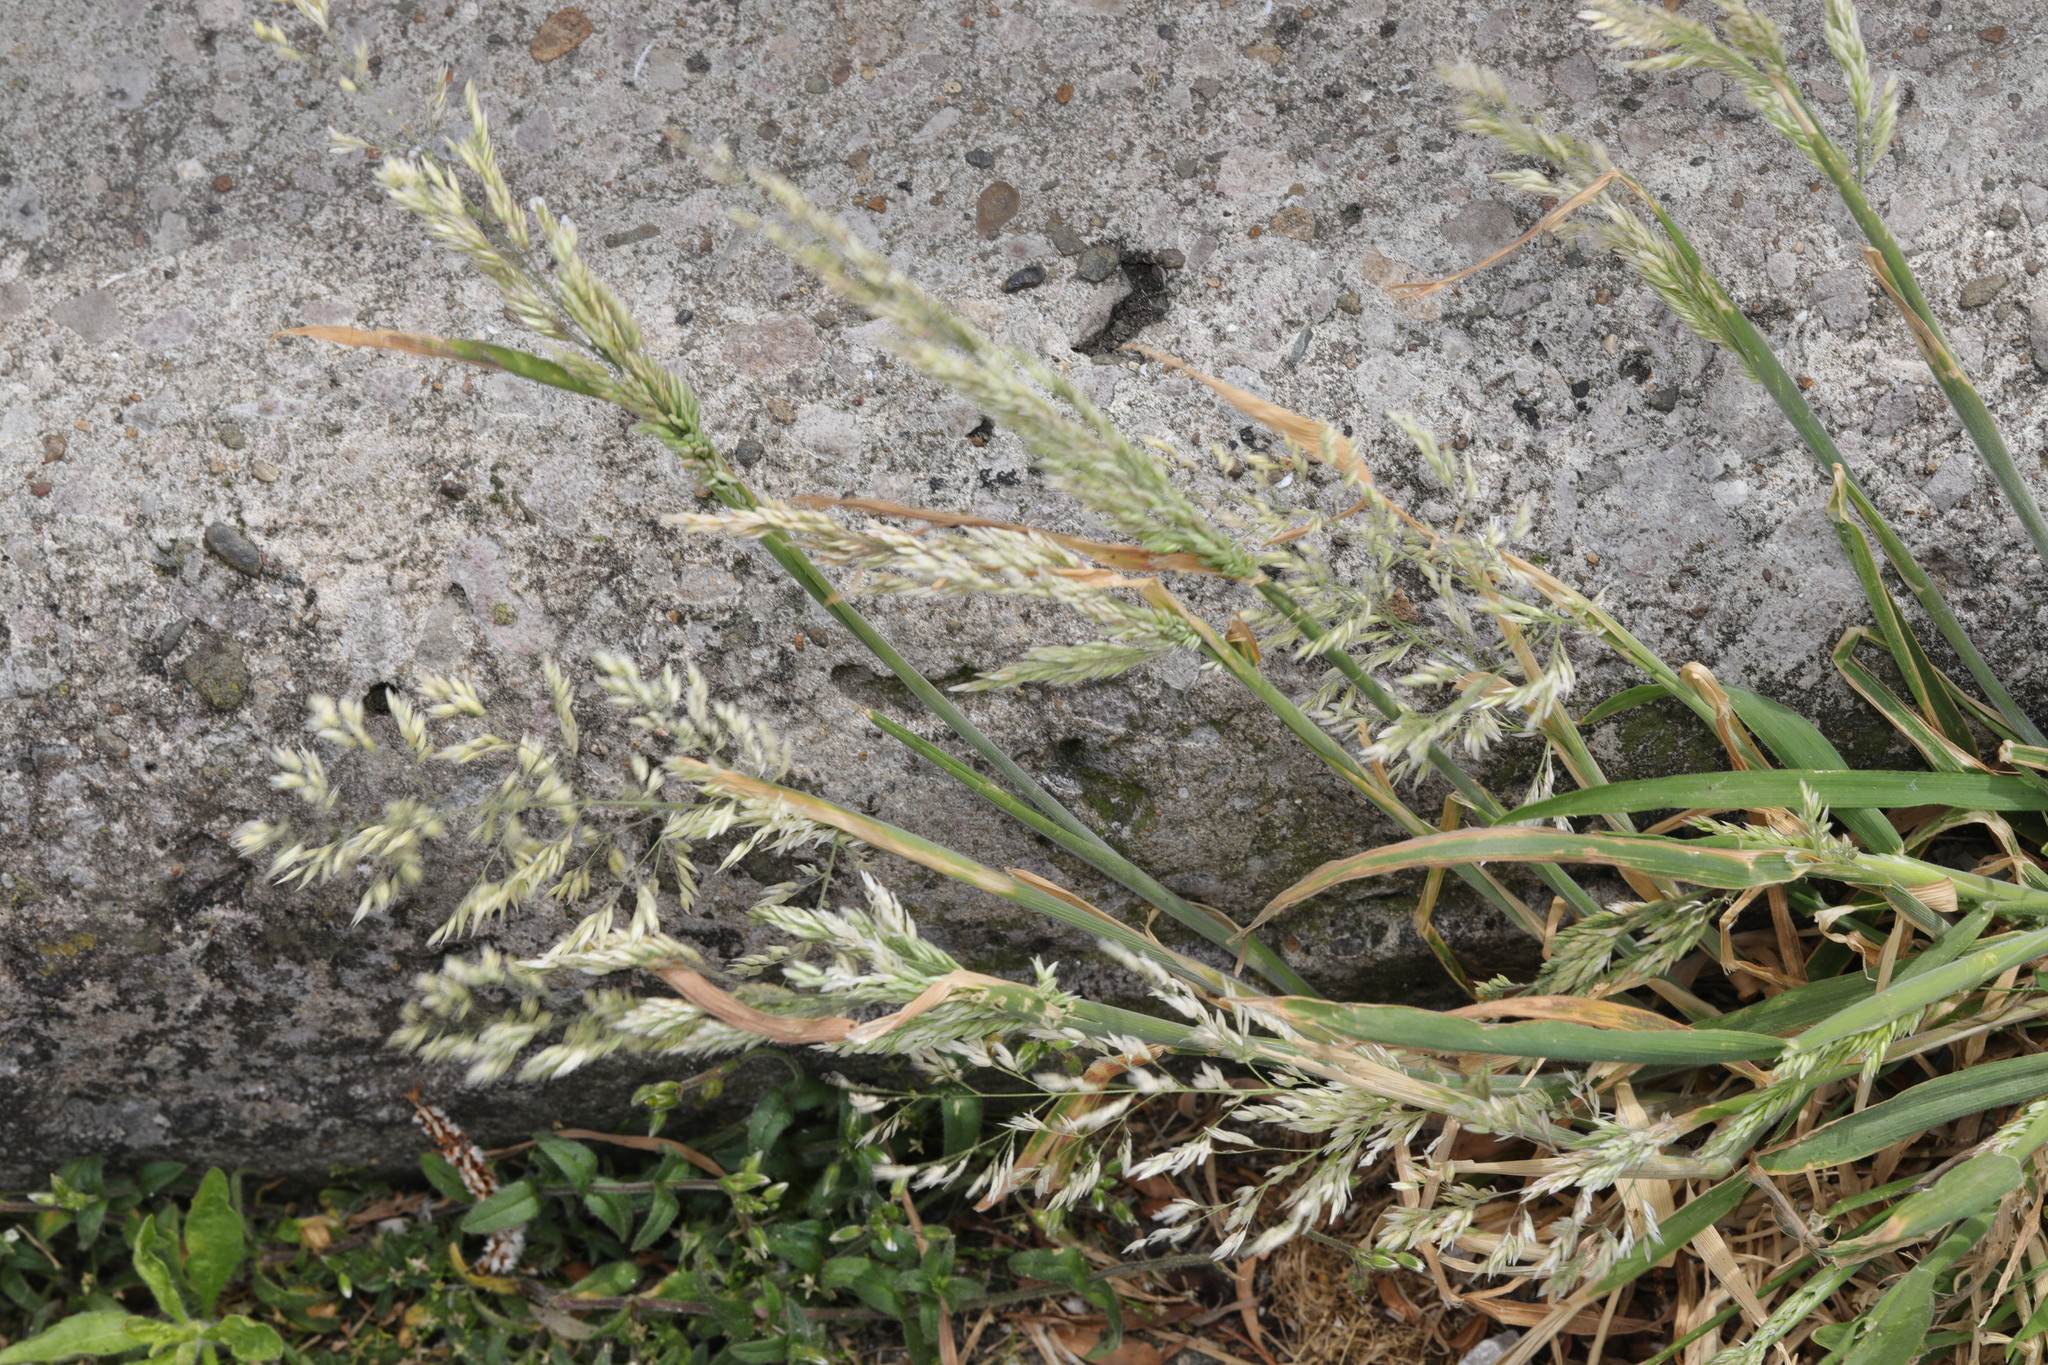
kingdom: Plantae
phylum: Tracheophyta
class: Liliopsida
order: Poales
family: Poaceae
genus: Holcus
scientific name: Holcus lanatus
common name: Yorkshire-fog
